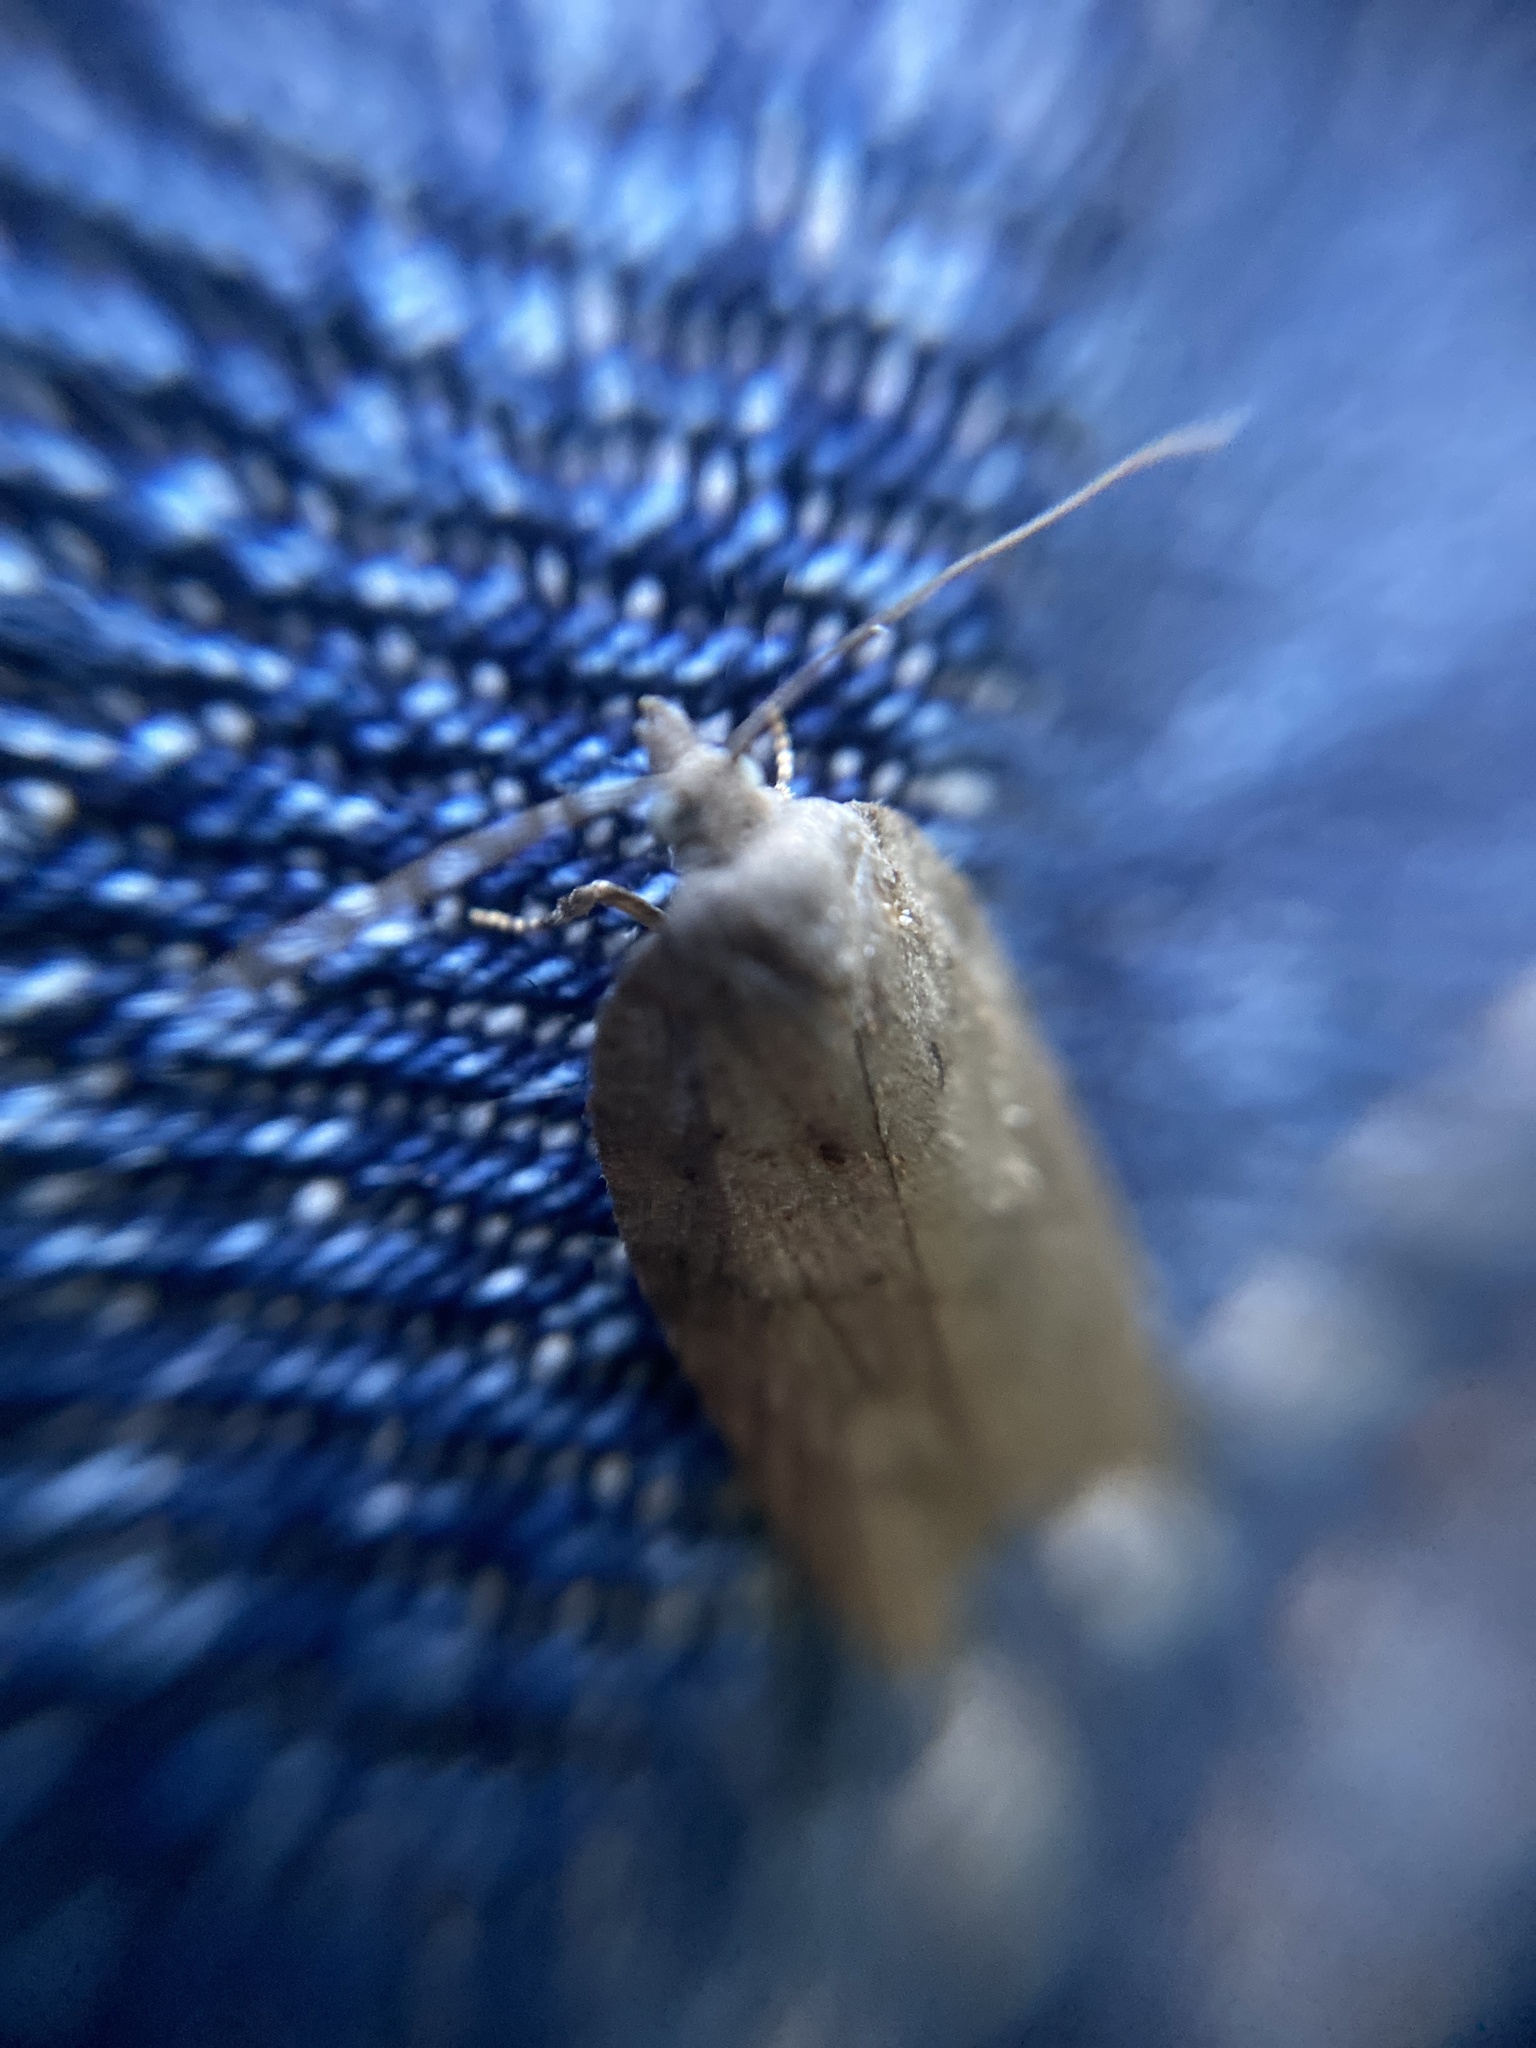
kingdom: Animalia
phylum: Arthropoda
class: Insecta
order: Lepidoptera
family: Tortricidae
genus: Acleris
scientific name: Acleris sparsana
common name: Ashy button
